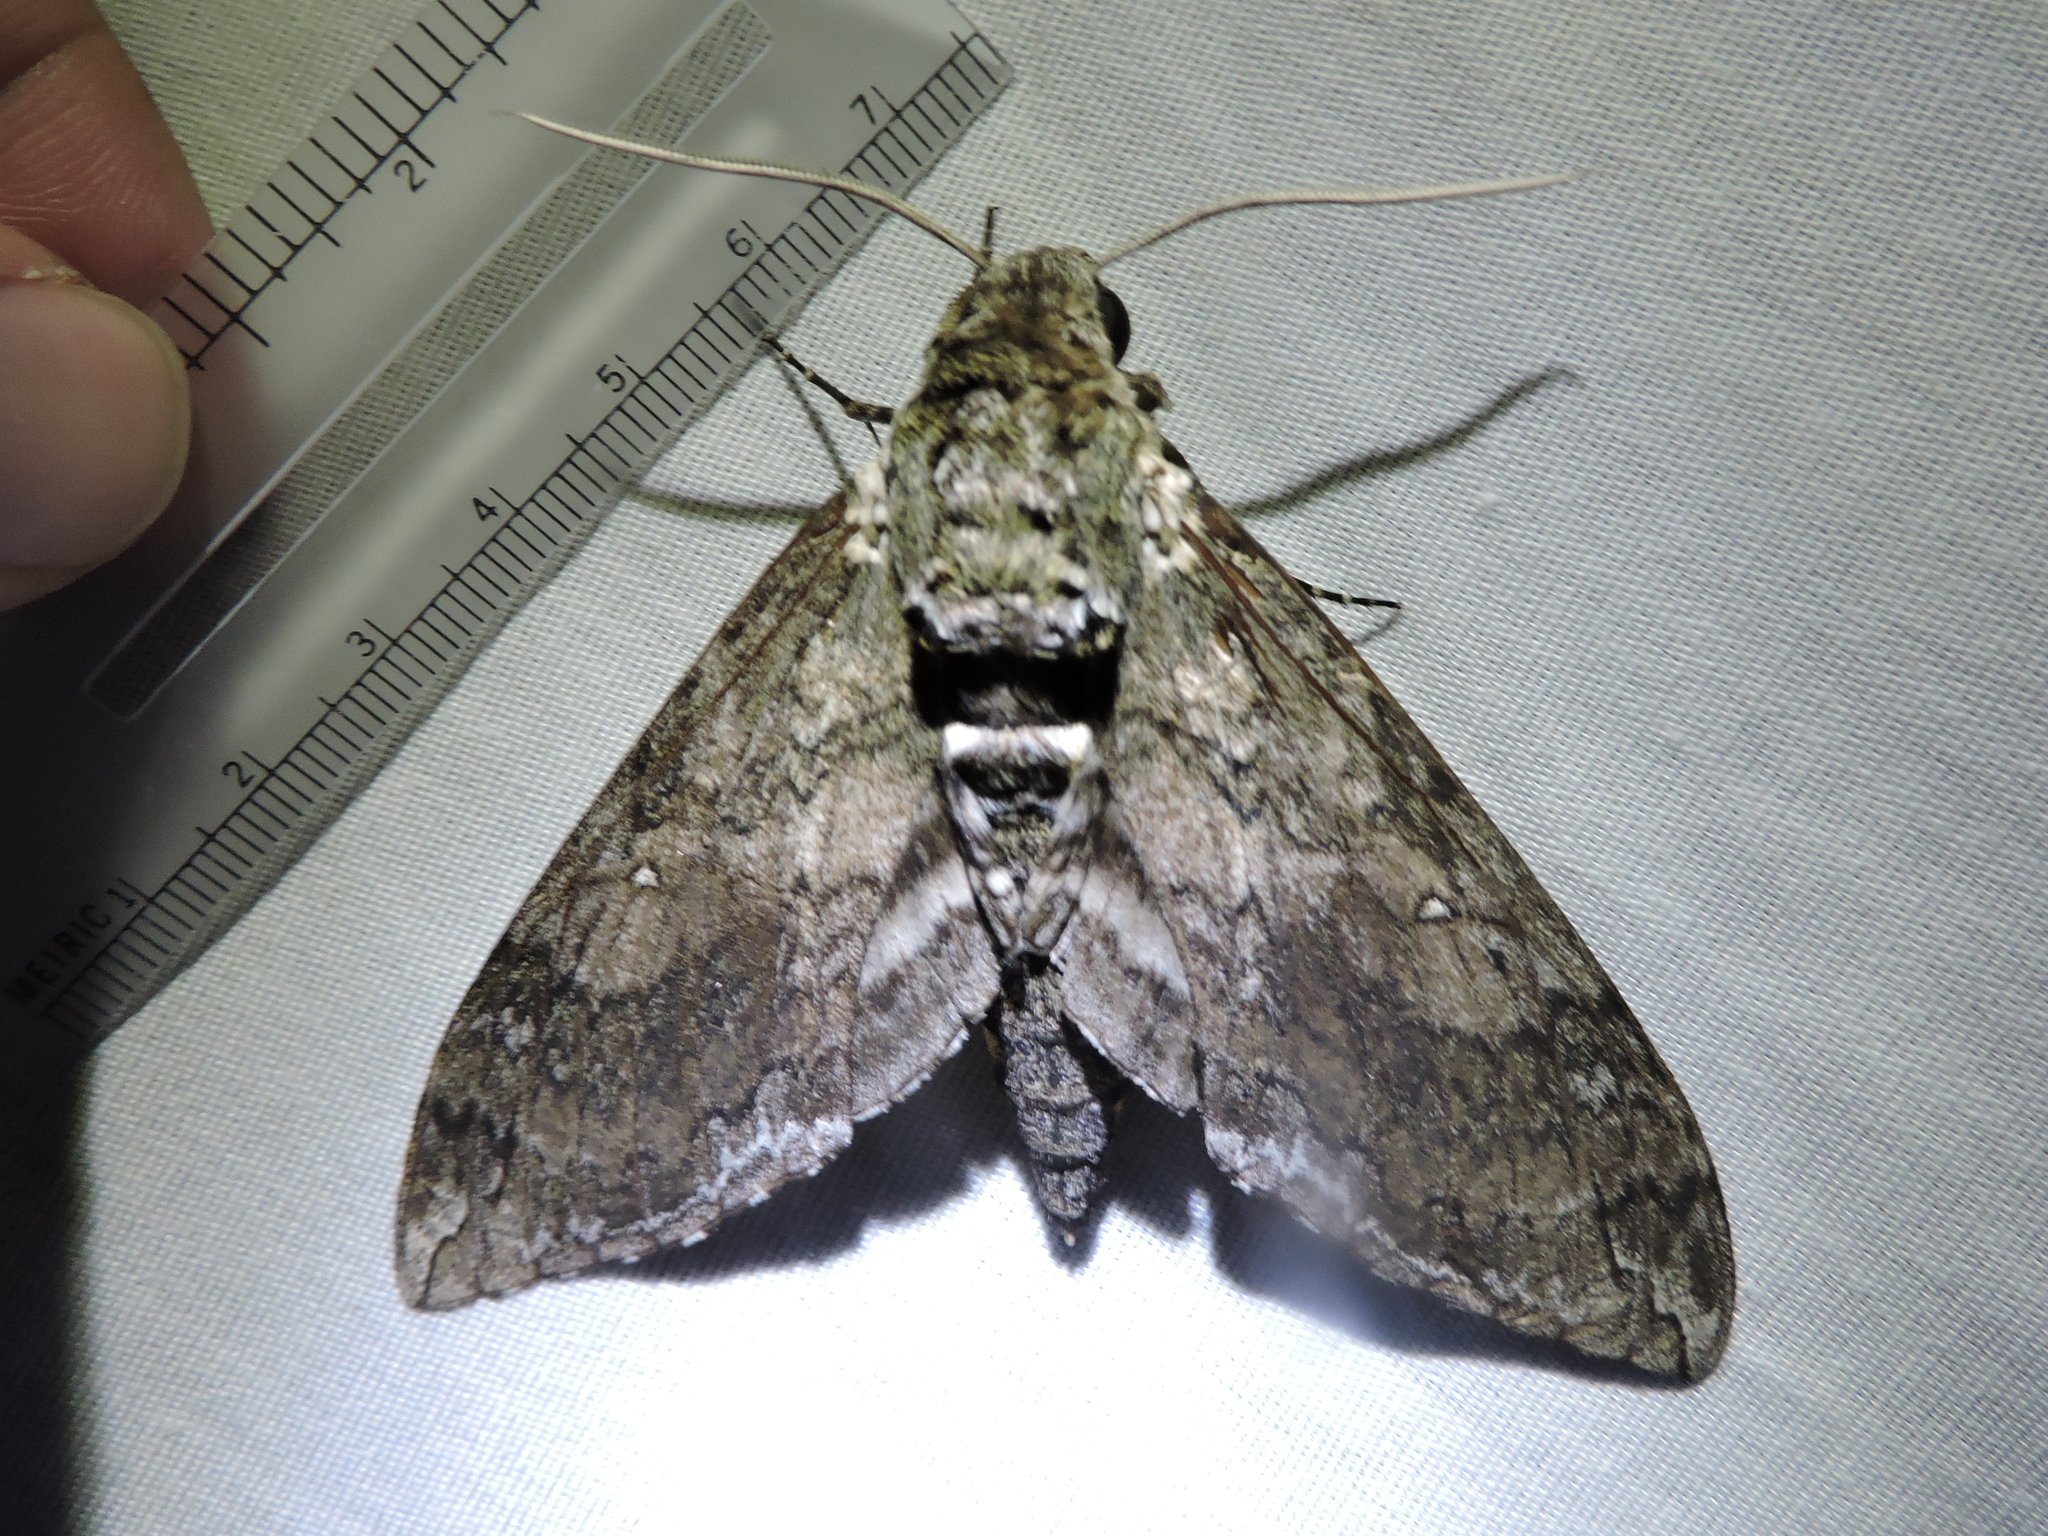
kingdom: Animalia
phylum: Arthropoda
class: Insecta
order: Lepidoptera
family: Sphingidae
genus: Ceratomia
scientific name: Ceratomia undulosa
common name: Waved sphinx
